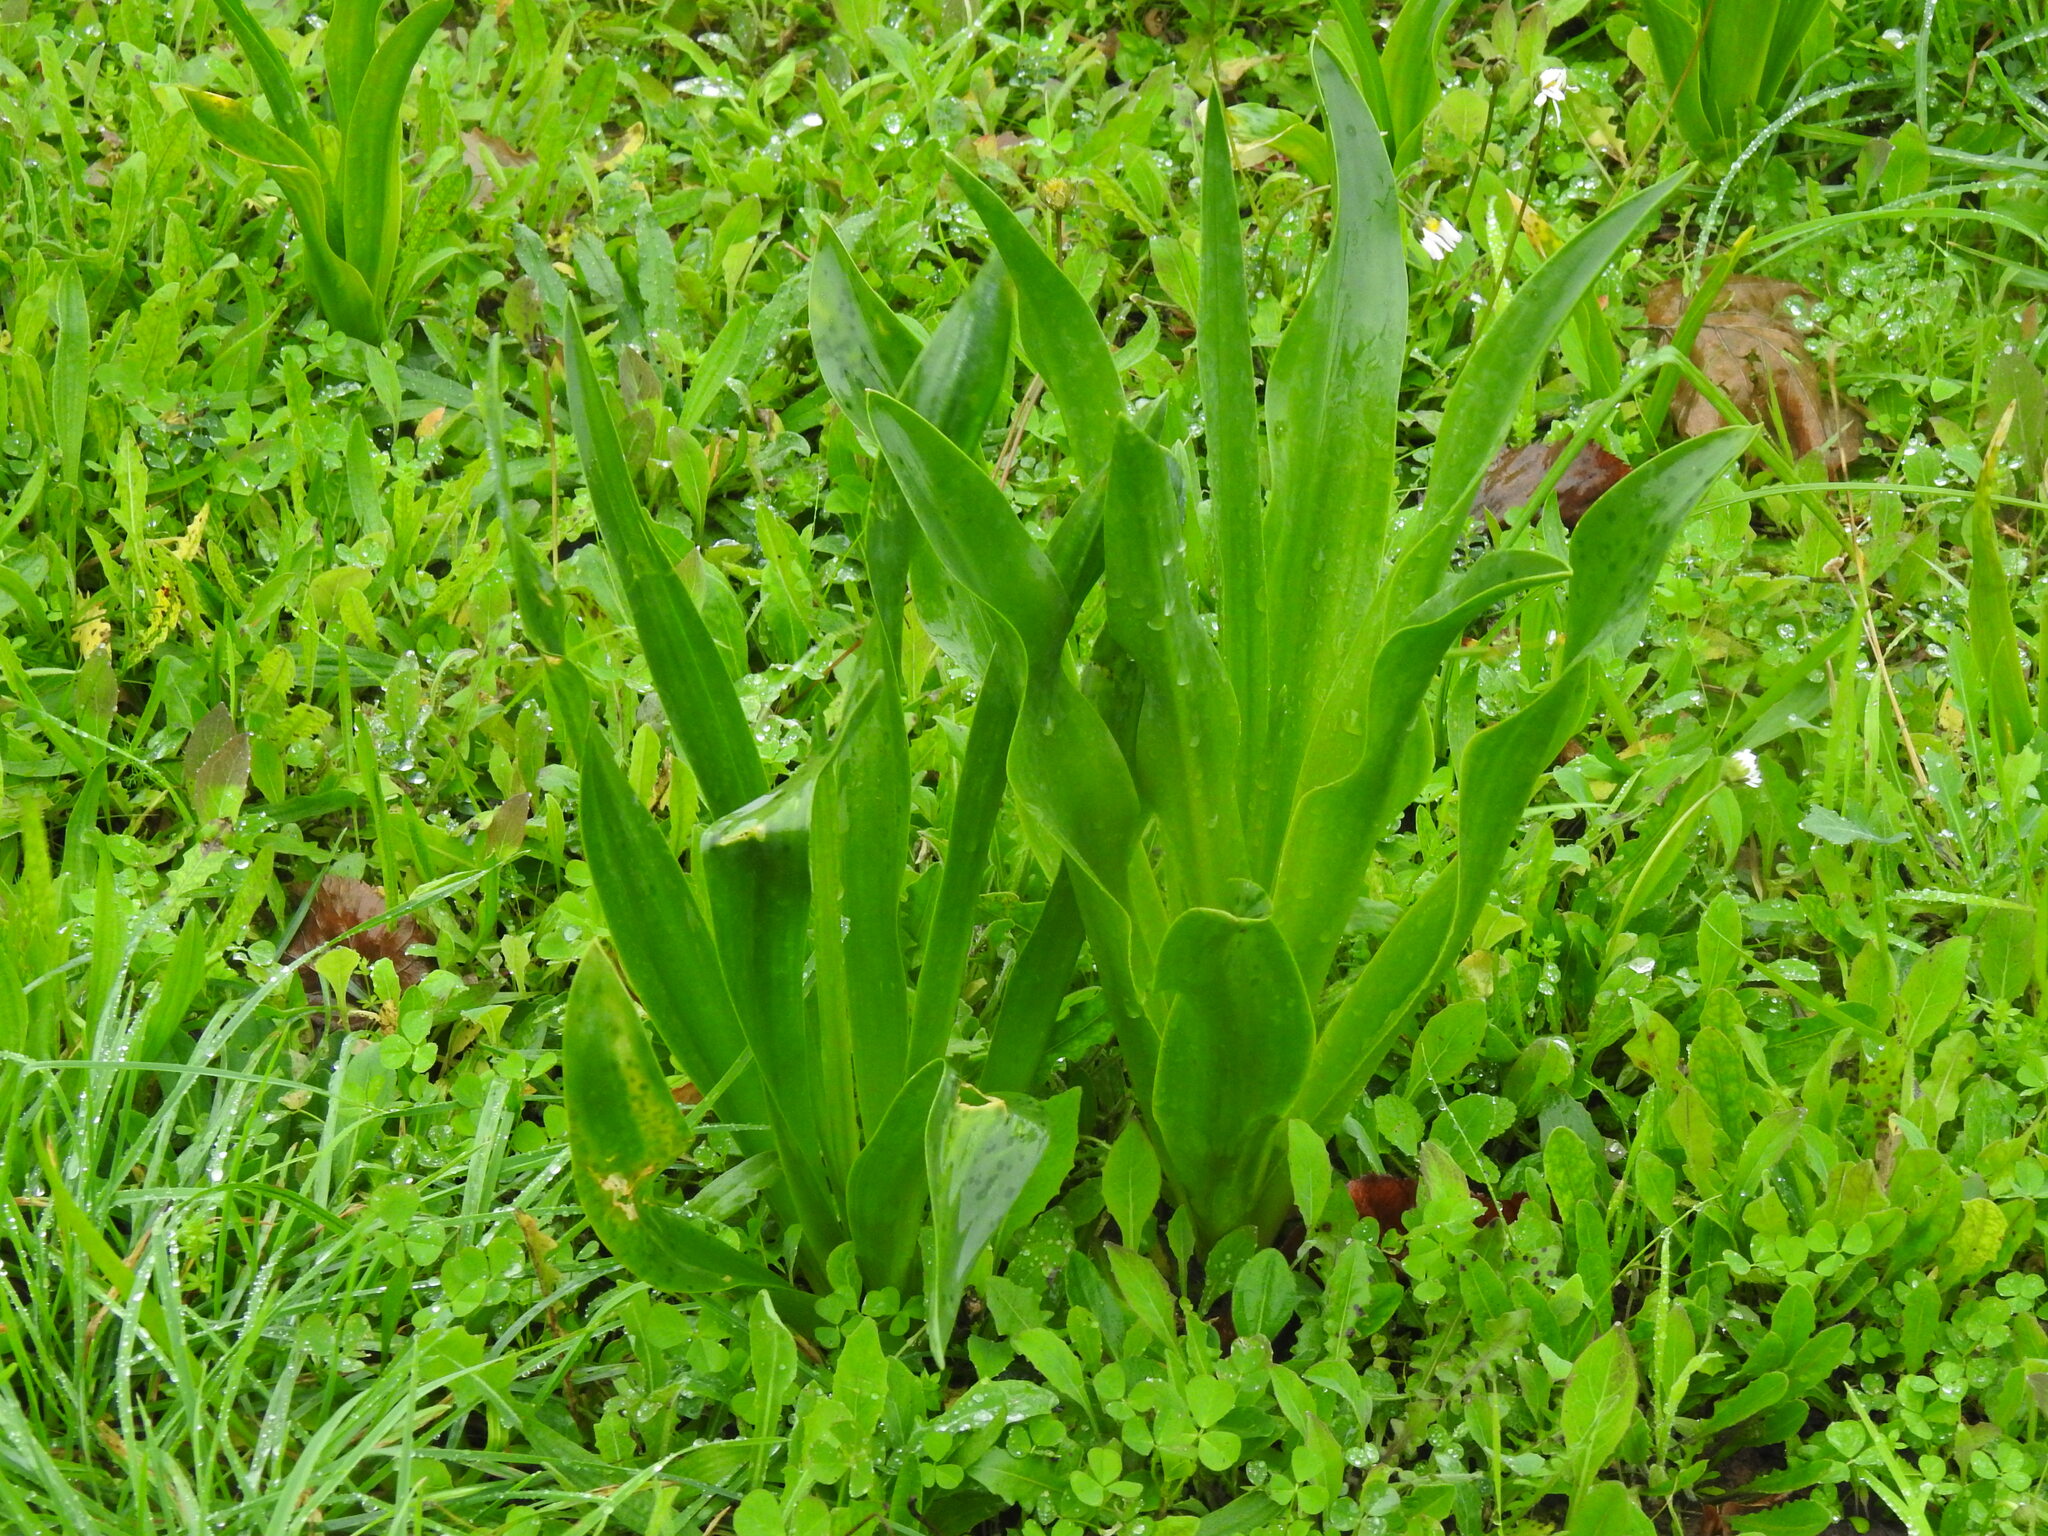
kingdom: Plantae
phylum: Tracheophyta
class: Liliopsida
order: Asparagales
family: Asparagaceae
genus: Drimia
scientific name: Drimia maritima
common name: Maritime squill
